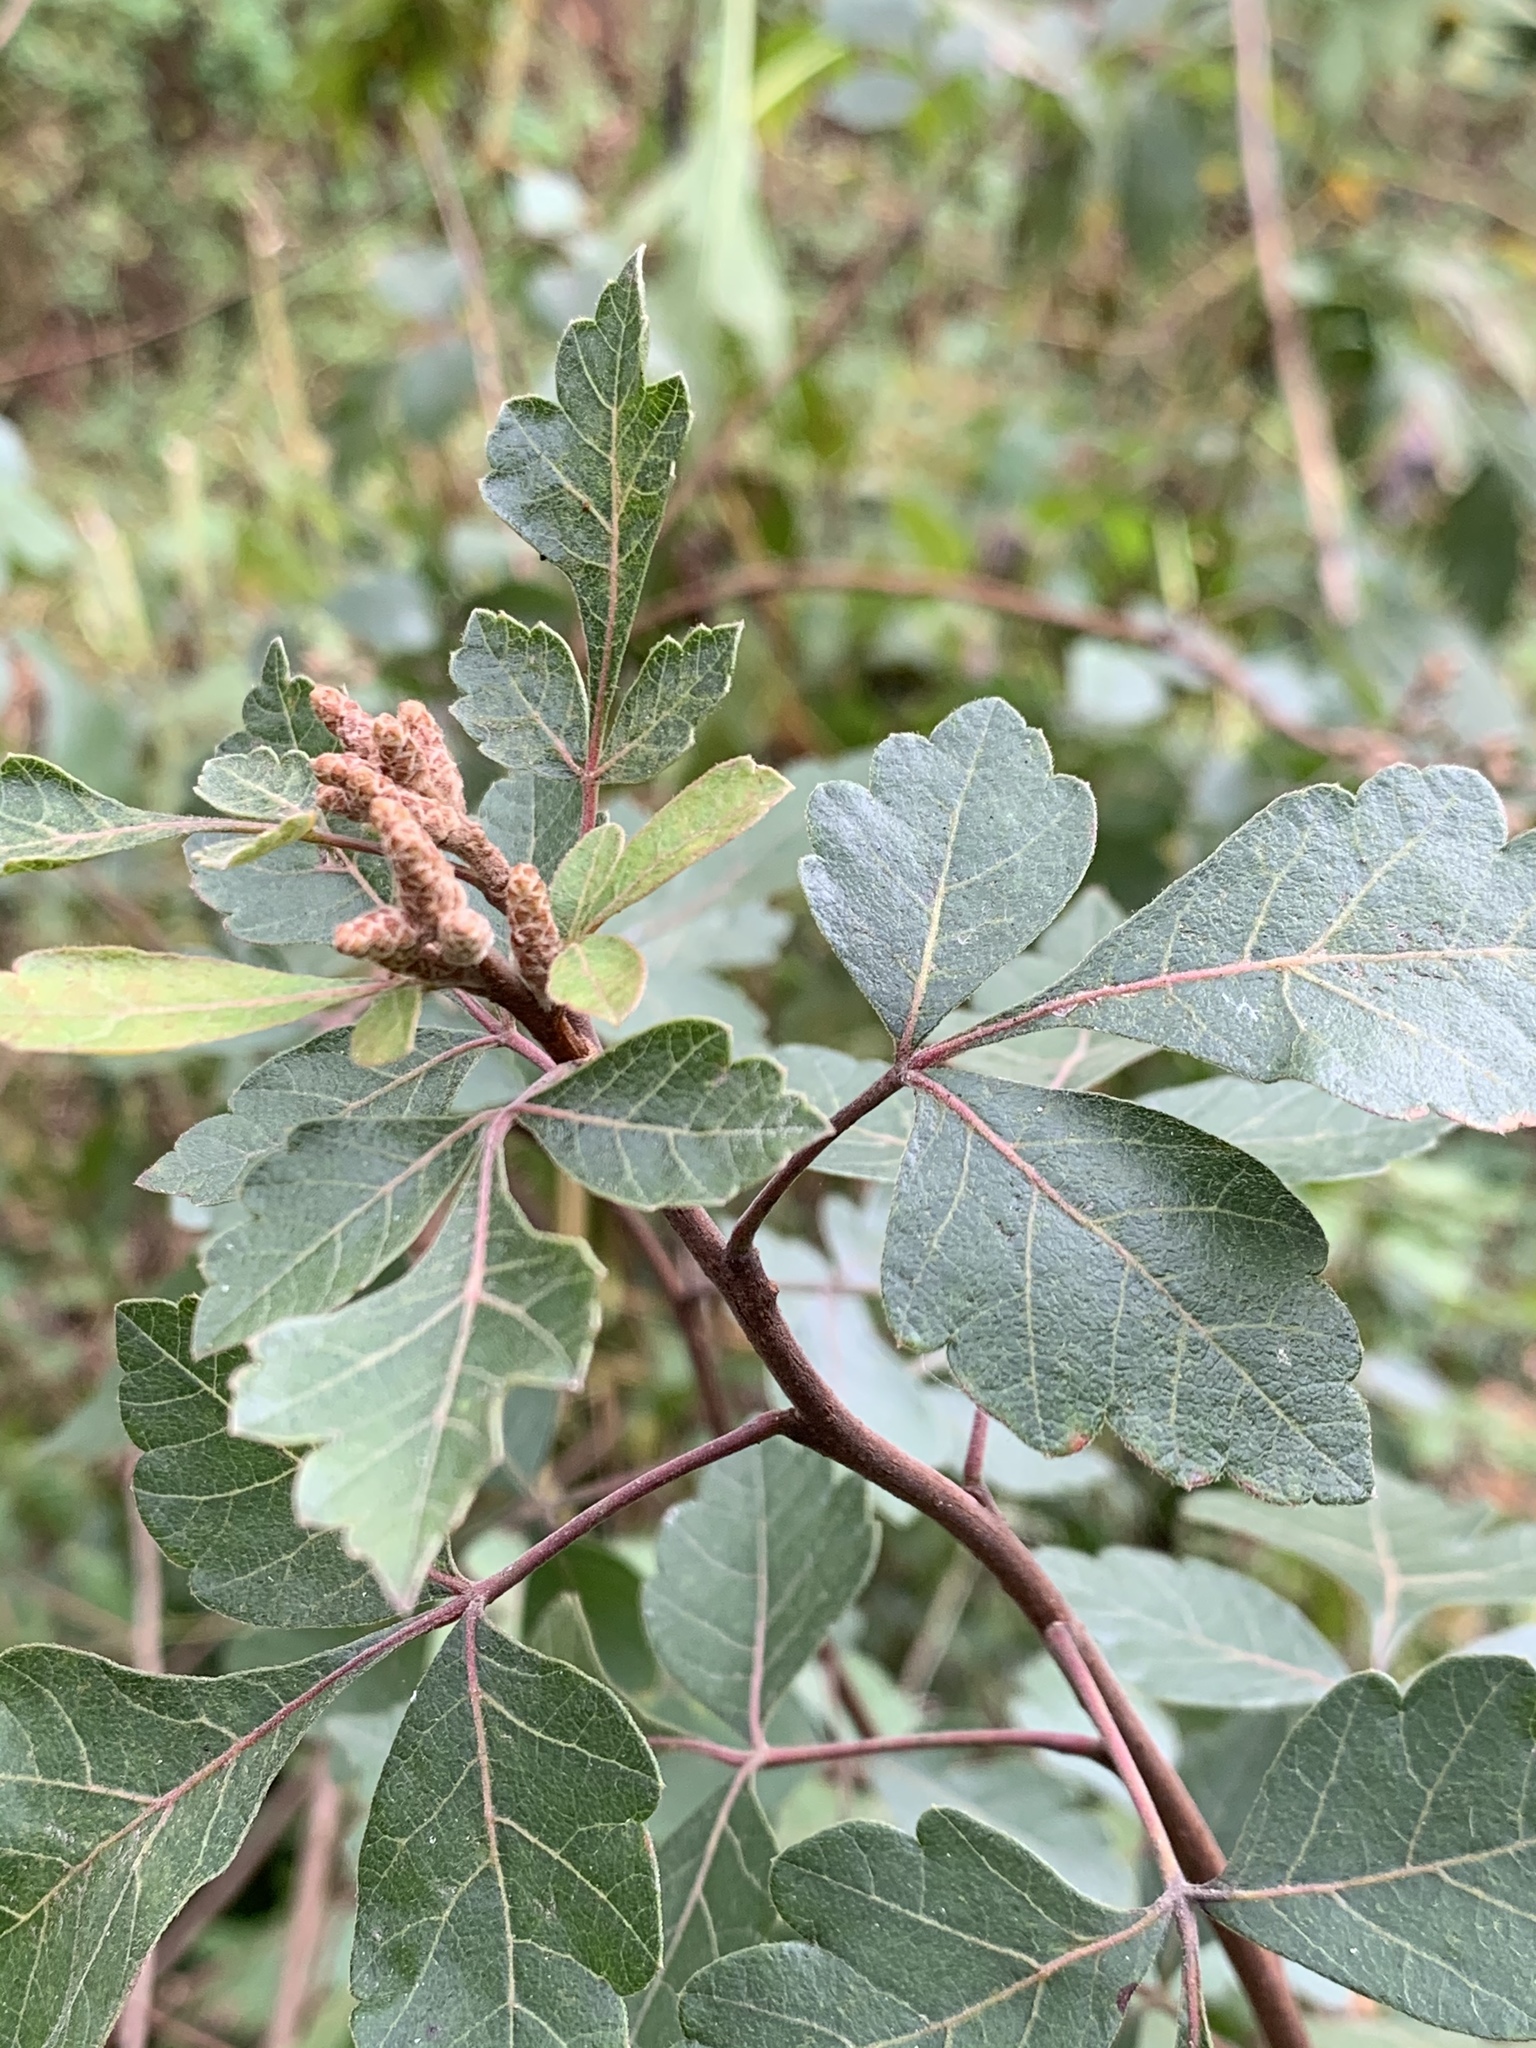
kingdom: Plantae
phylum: Tracheophyta
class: Magnoliopsida
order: Sapindales
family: Anacardiaceae
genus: Rhus
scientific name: Rhus aromatica
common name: Aromatic sumac
